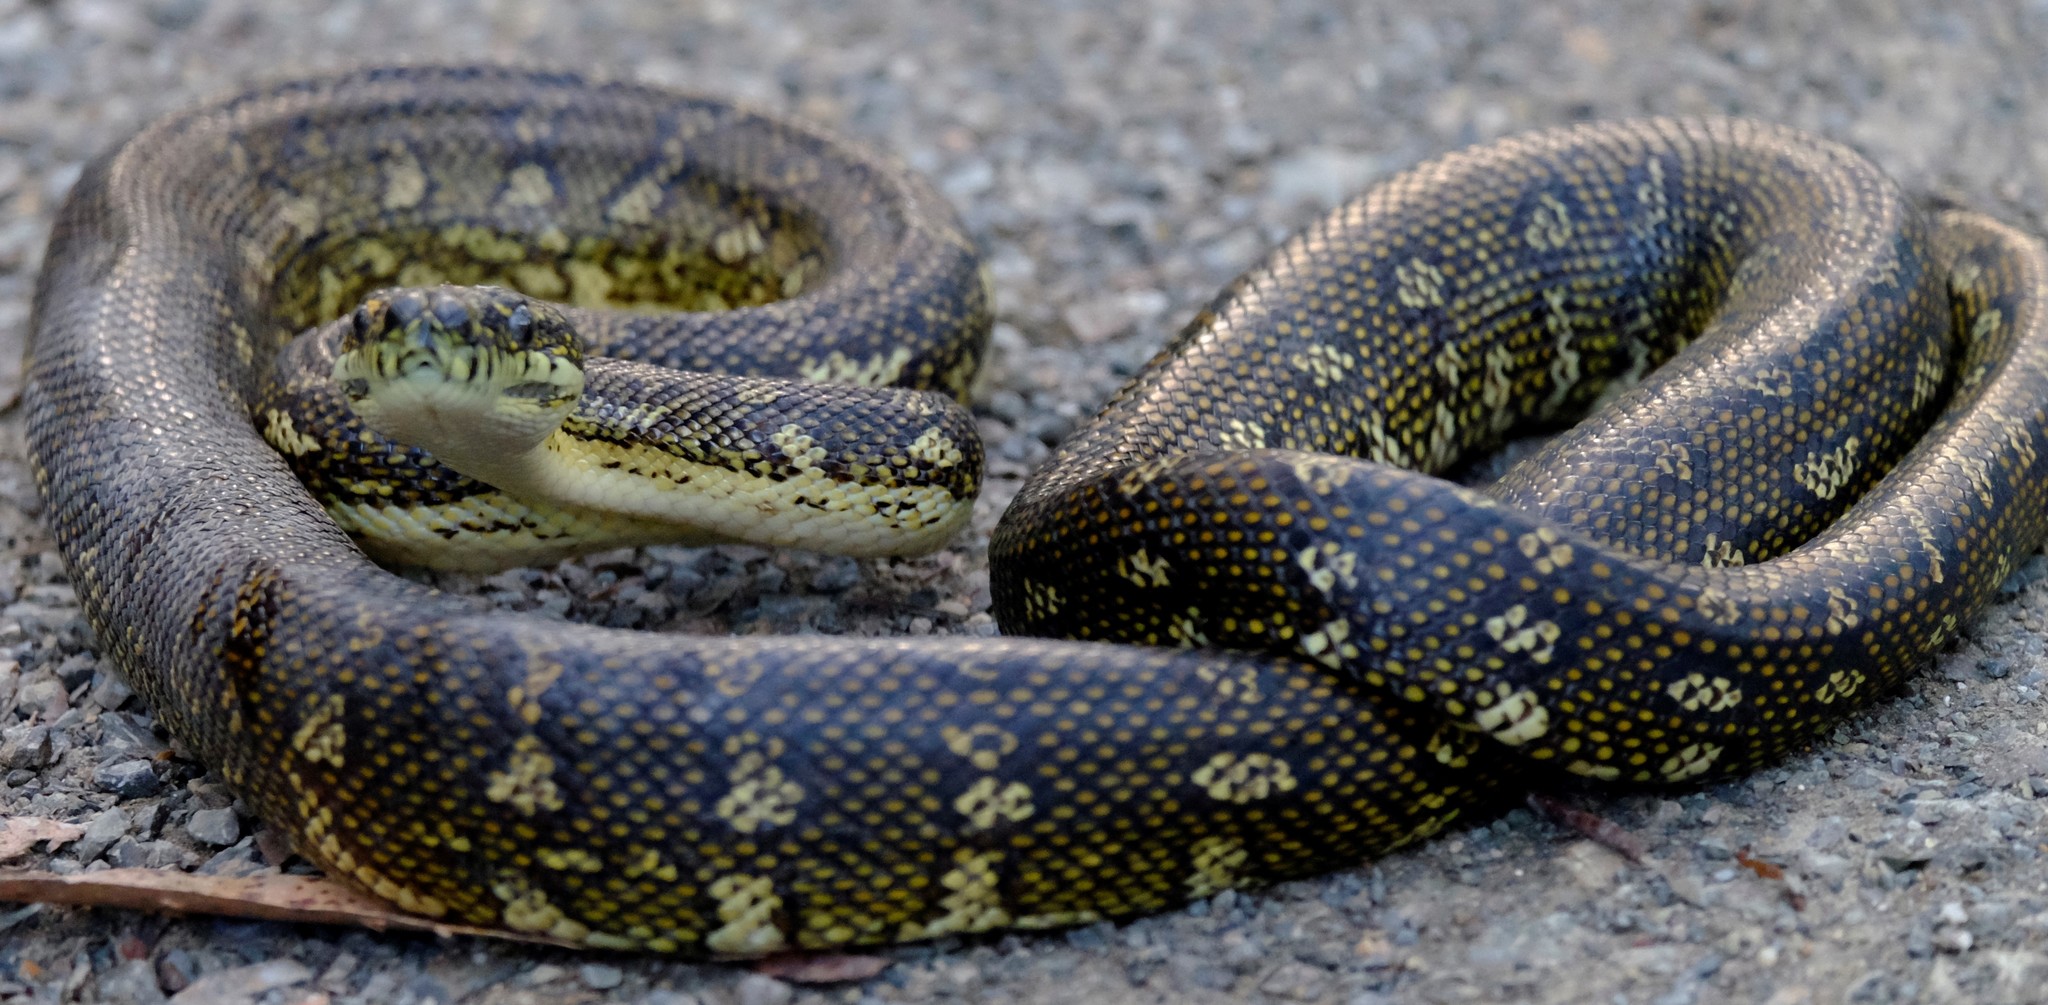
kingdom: Animalia
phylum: Chordata
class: Squamata
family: Pythonidae
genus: Morelia
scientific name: Morelia spilota
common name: Carpet python
